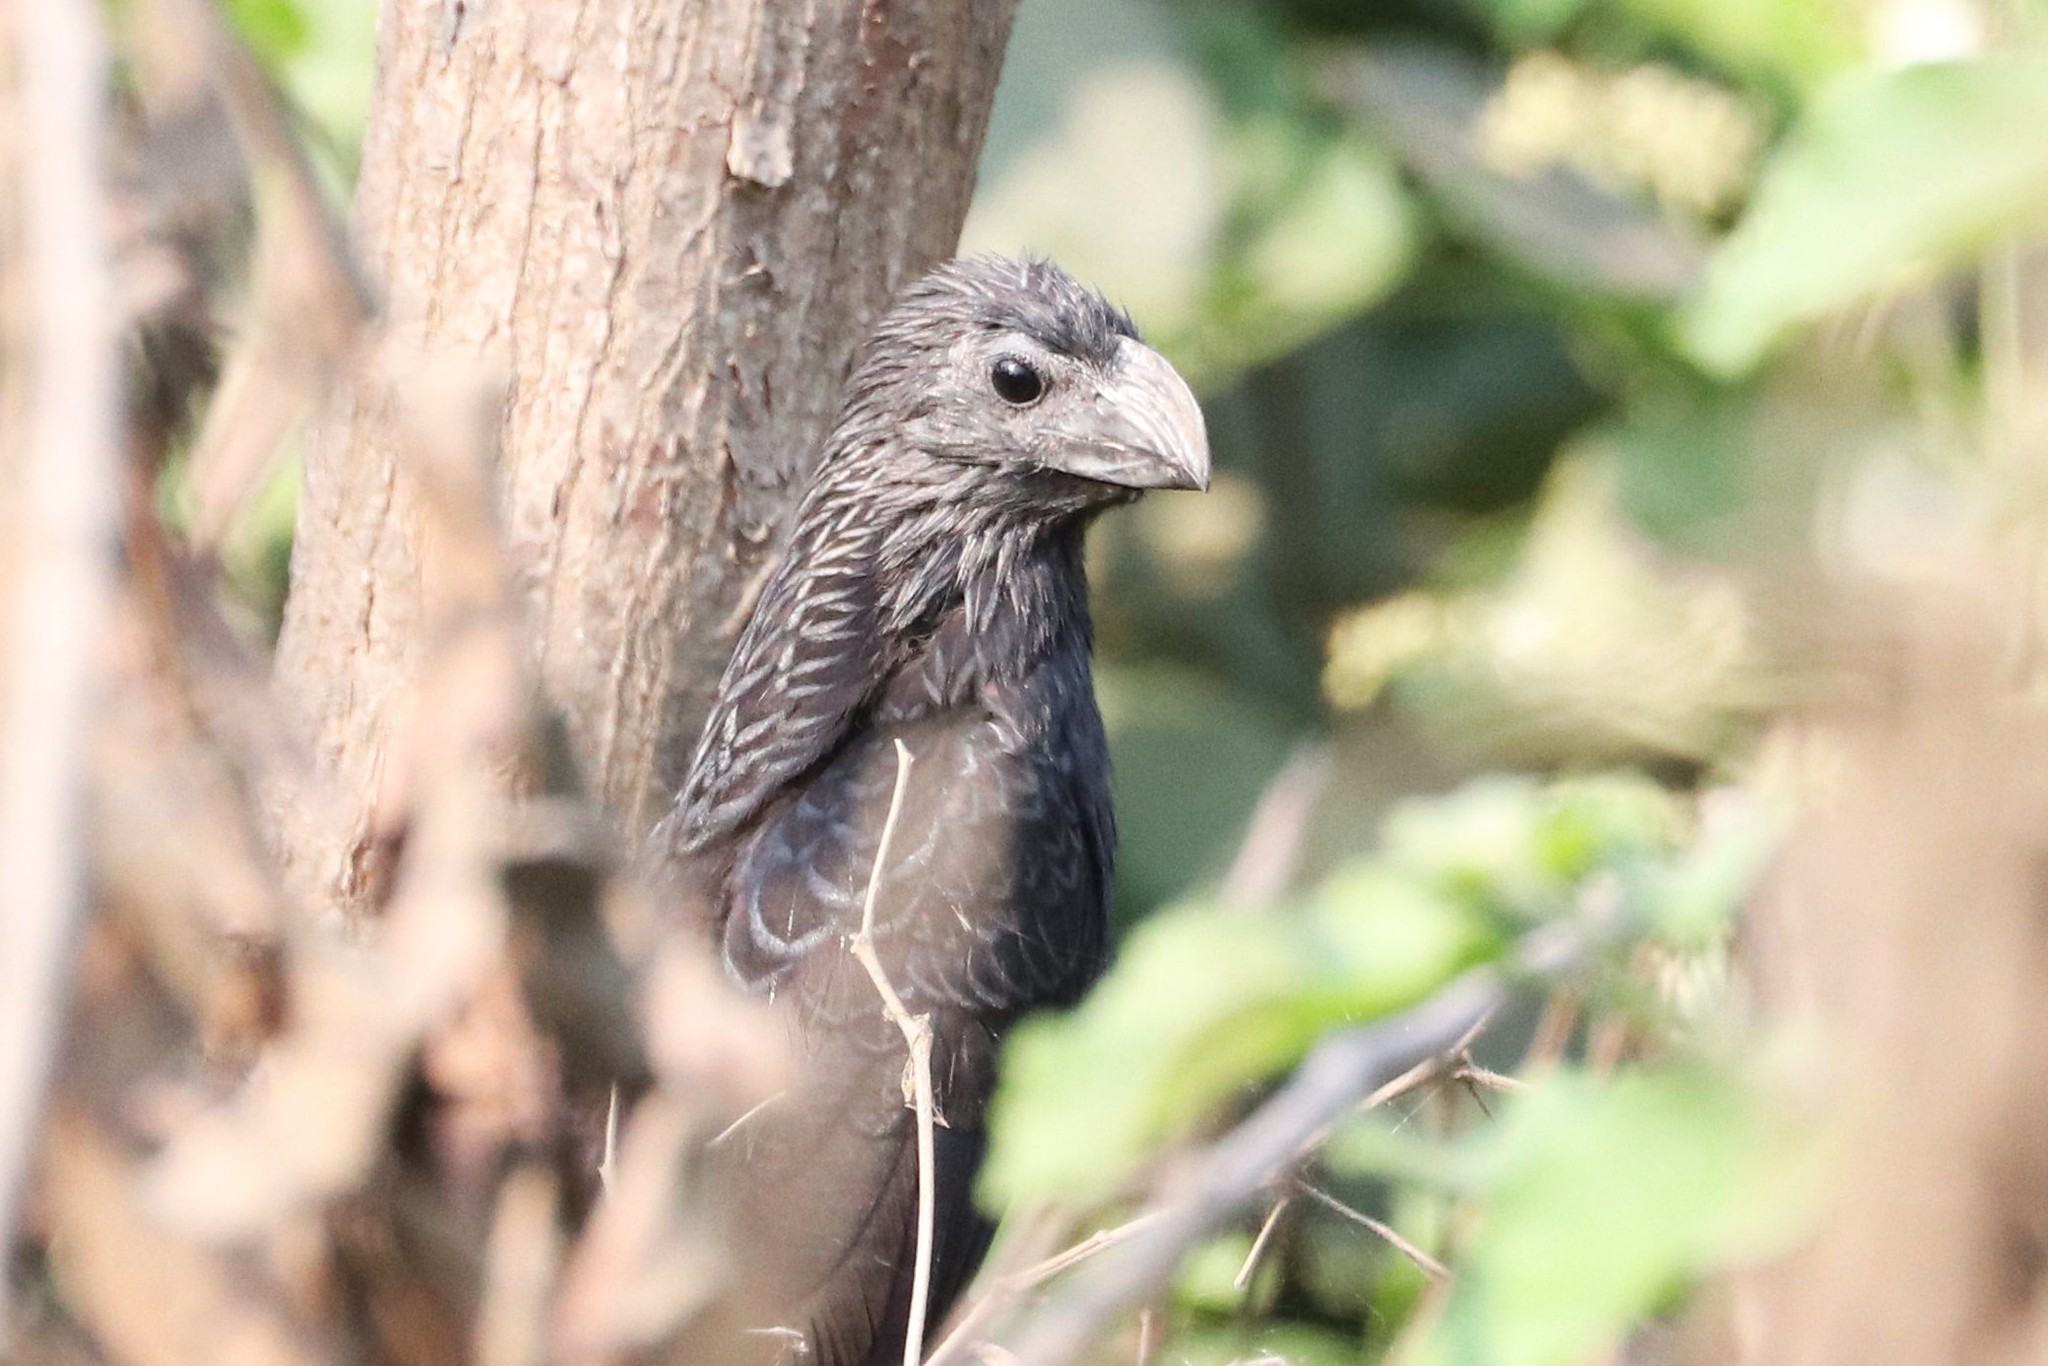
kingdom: Animalia
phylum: Chordata
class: Aves
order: Cuculiformes
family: Cuculidae
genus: Crotophaga
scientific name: Crotophaga sulcirostris
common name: Groove-billed ani
